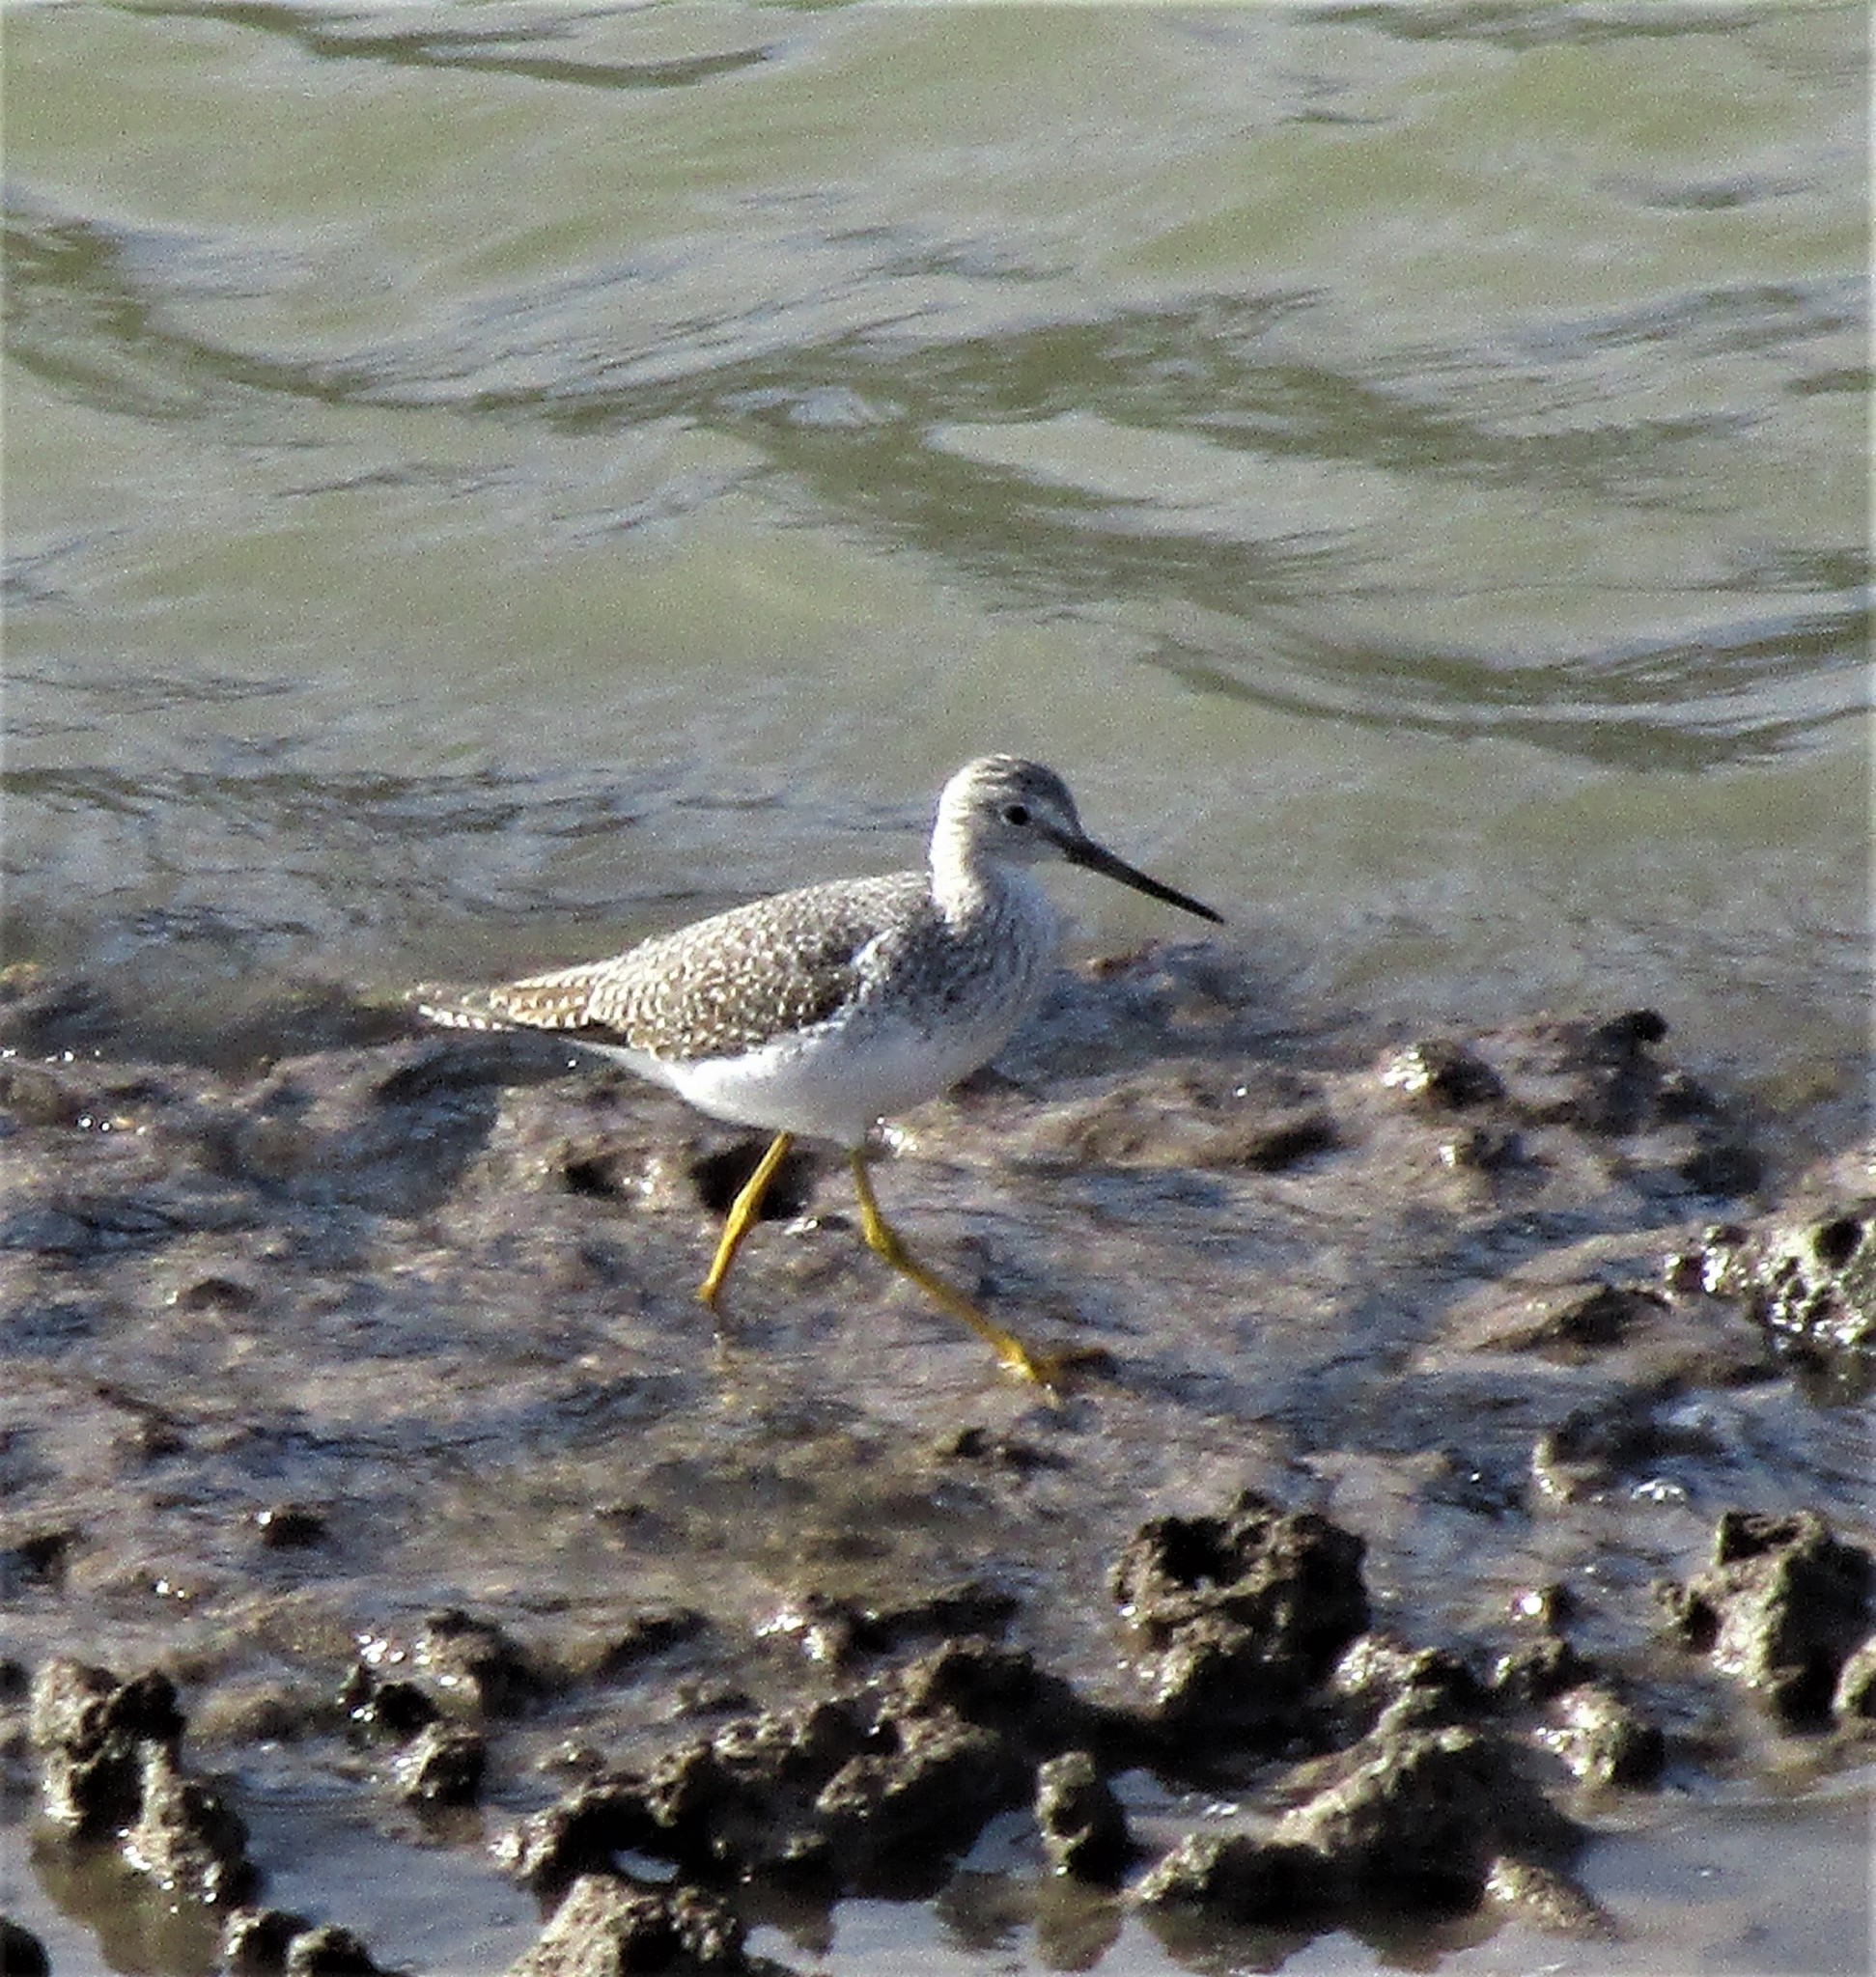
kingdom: Animalia
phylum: Chordata
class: Aves
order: Charadriiformes
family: Scolopacidae
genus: Tringa
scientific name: Tringa melanoleuca
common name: Greater yellowlegs
